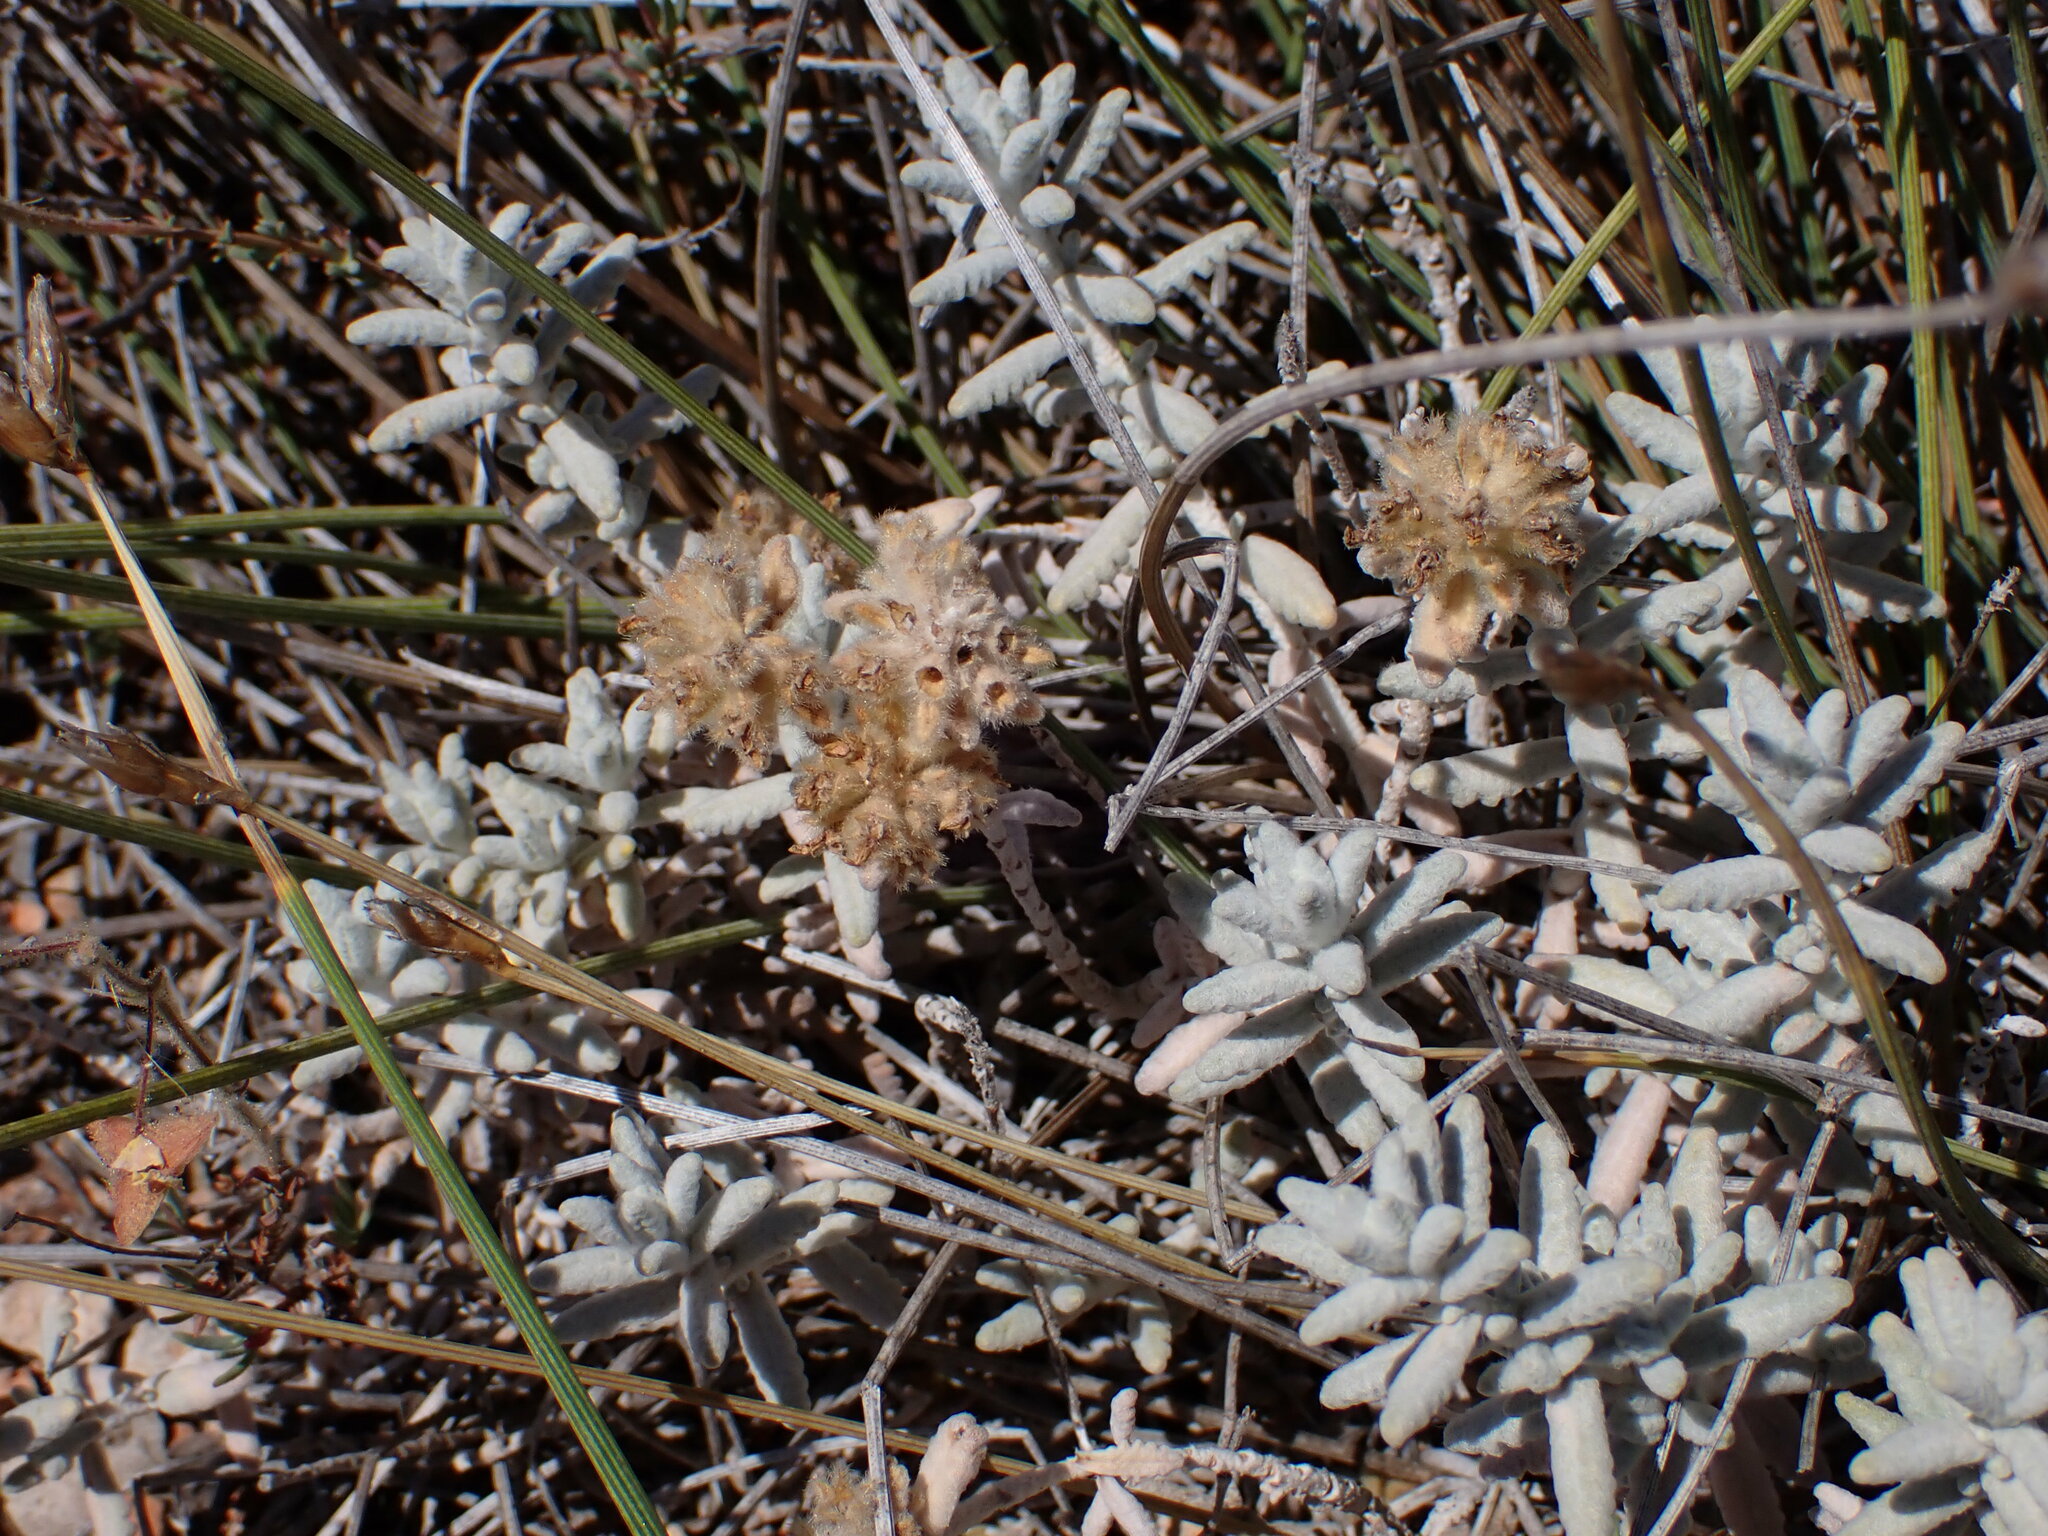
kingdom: Plantae
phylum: Tracheophyta
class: Magnoliopsida
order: Lamiales
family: Lamiaceae
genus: Teucrium
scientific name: Teucrium aureum
